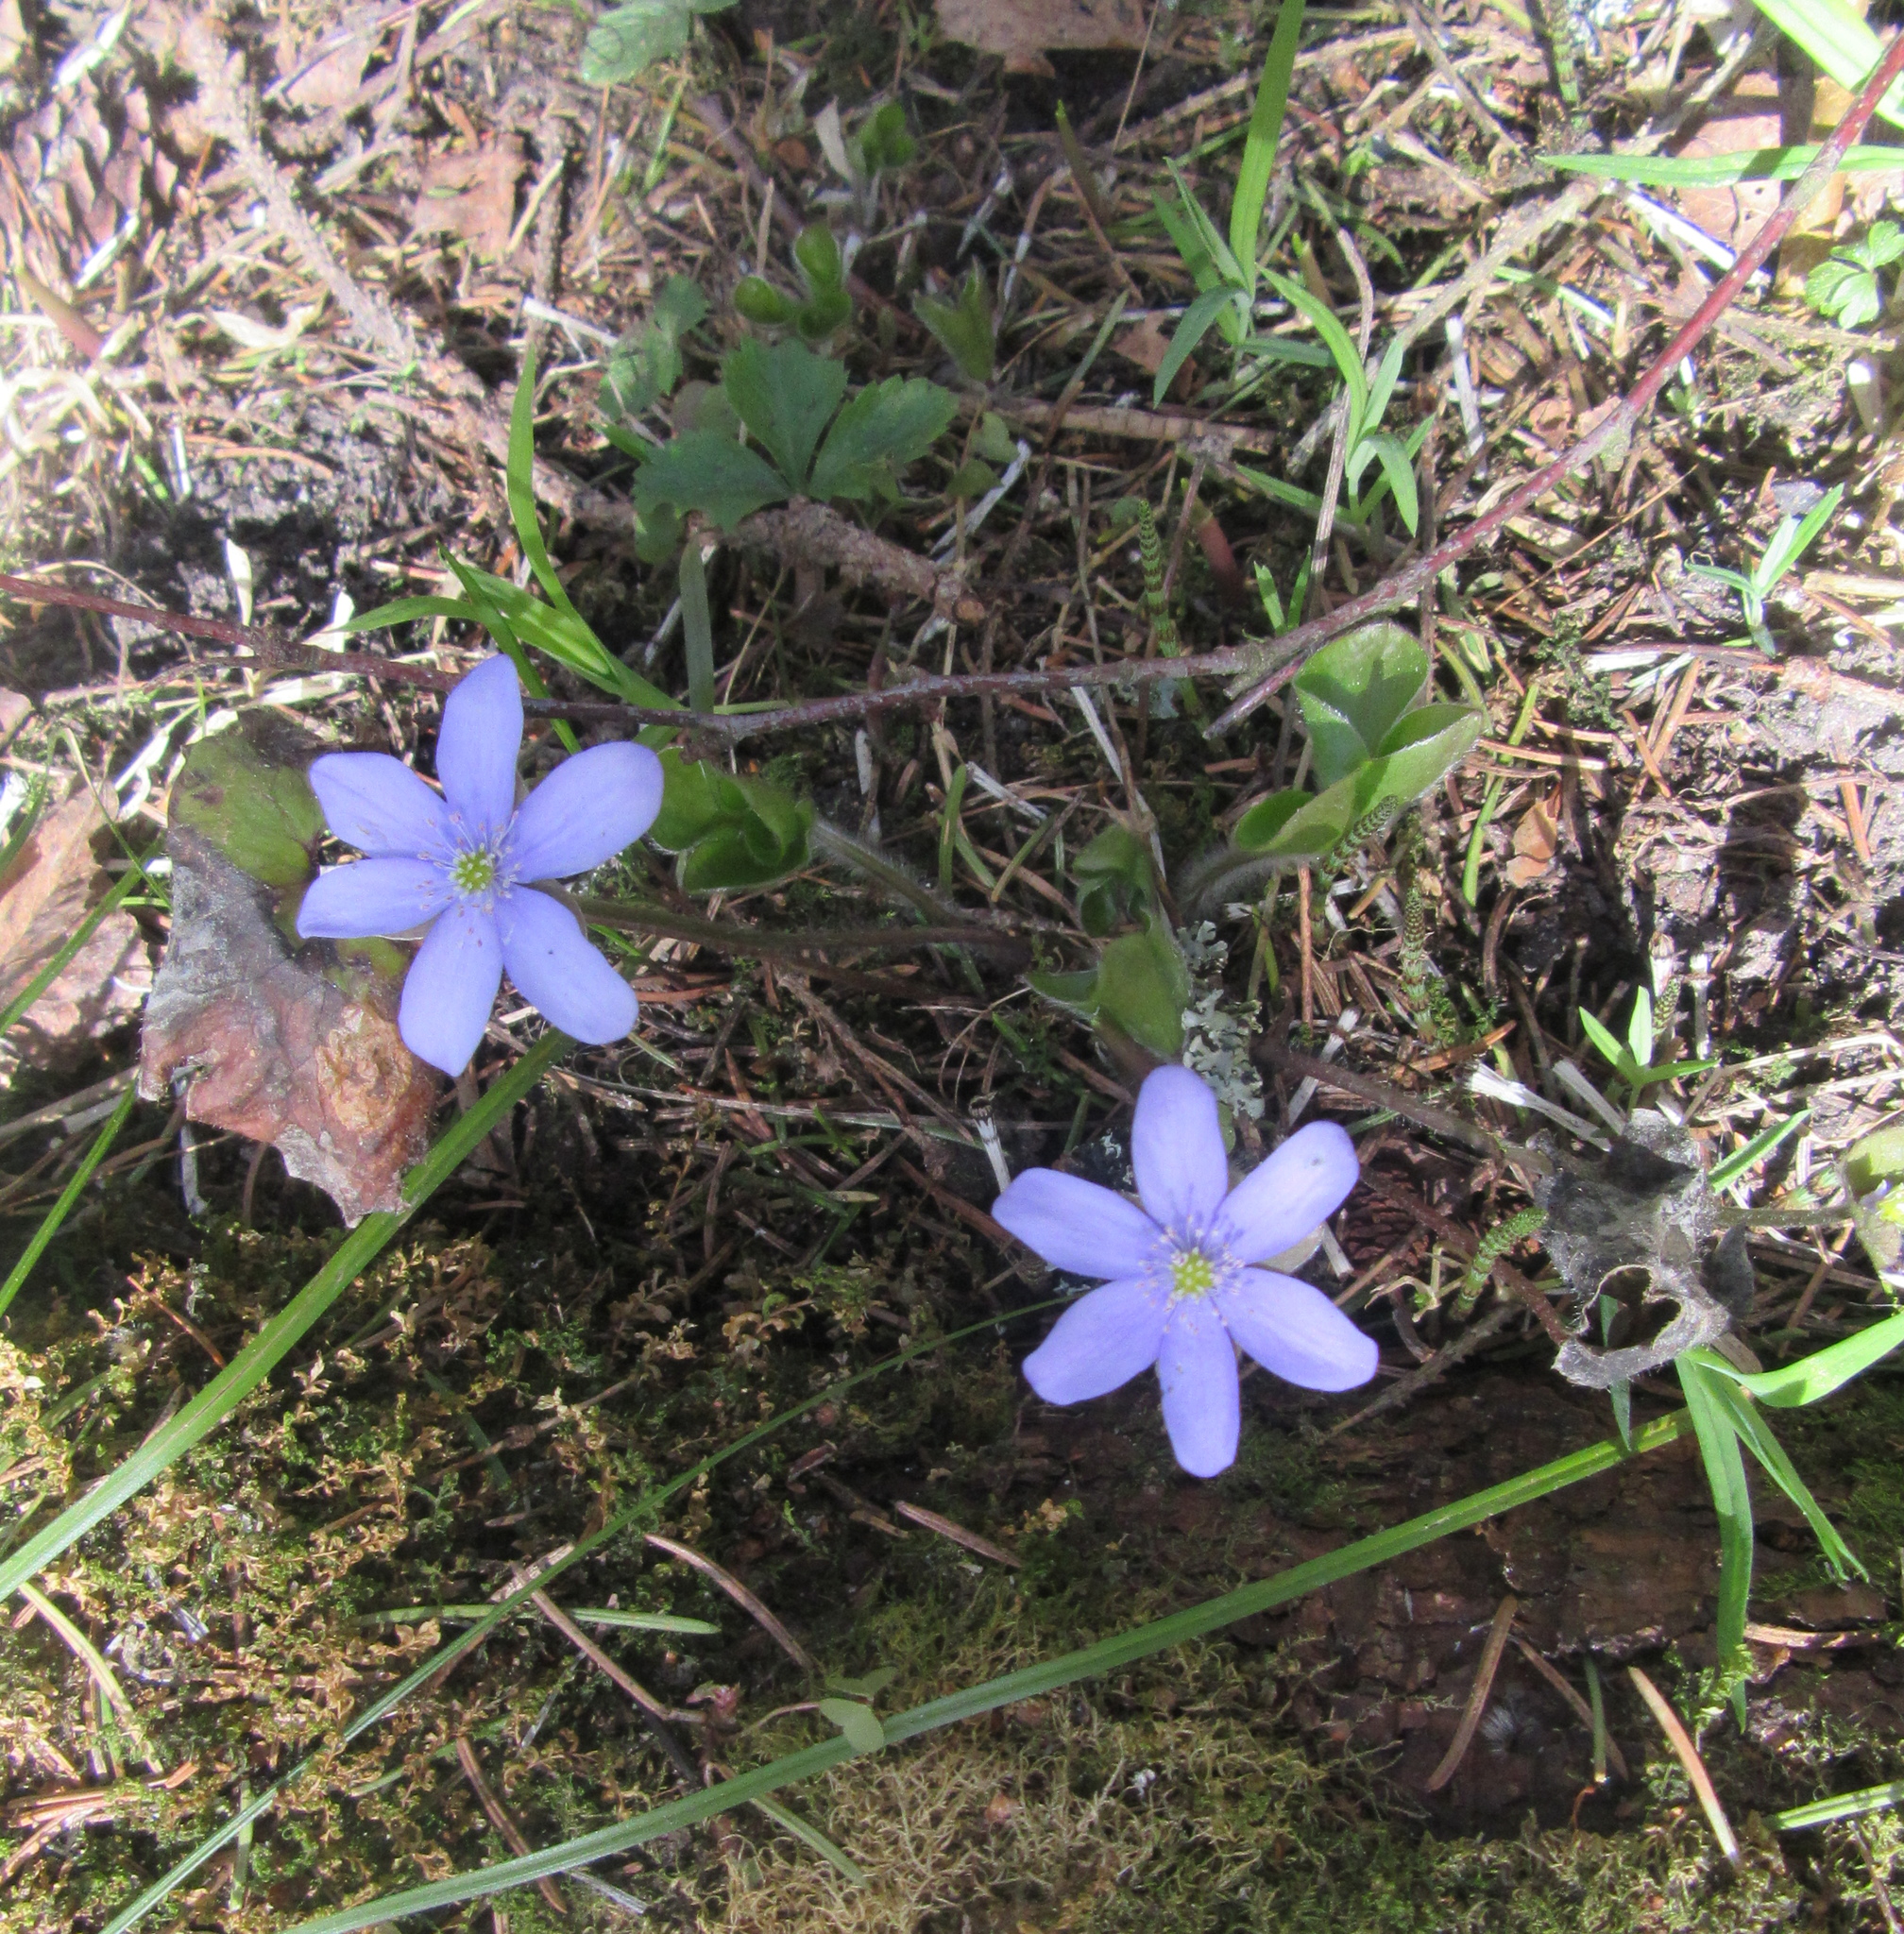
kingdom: Plantae
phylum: Tracheophyta
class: Magnoliopsida
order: Ranunculales
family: Ranunculaceae
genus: Hepatica
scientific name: Hepatica nobilis
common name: Liverleaf
